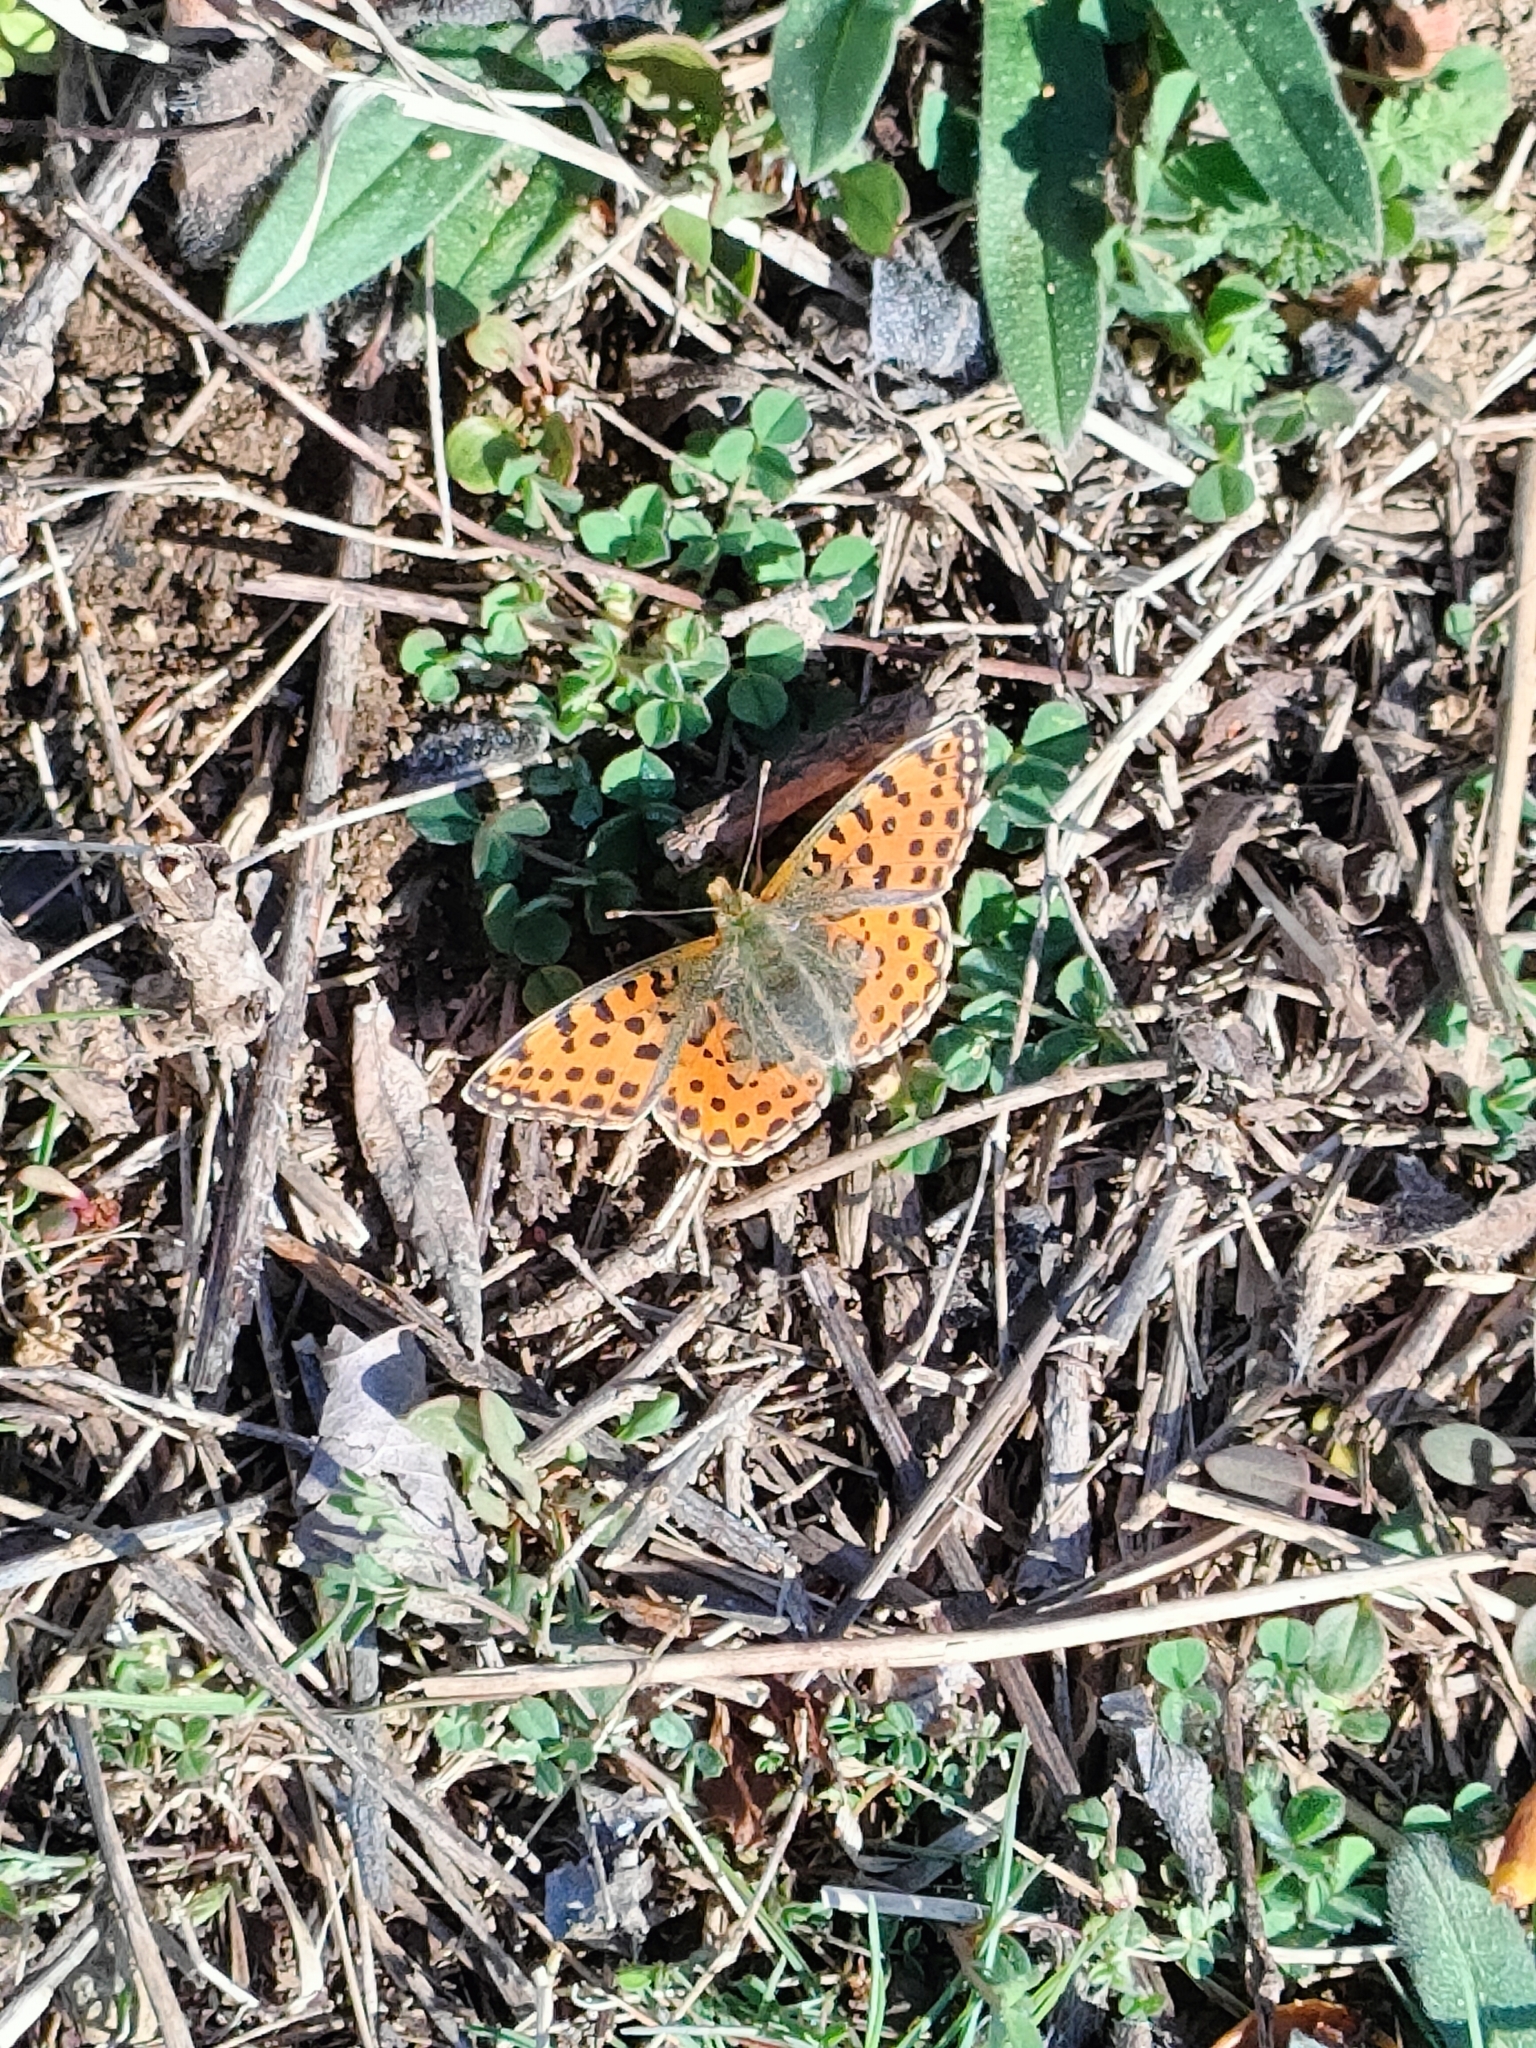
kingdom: Animalia
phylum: Arthropoda
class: Insecta
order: Lepidoptera
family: Nymphalidae
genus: Issoria
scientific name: Issoria lathonia
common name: Queen of spain fritillary
